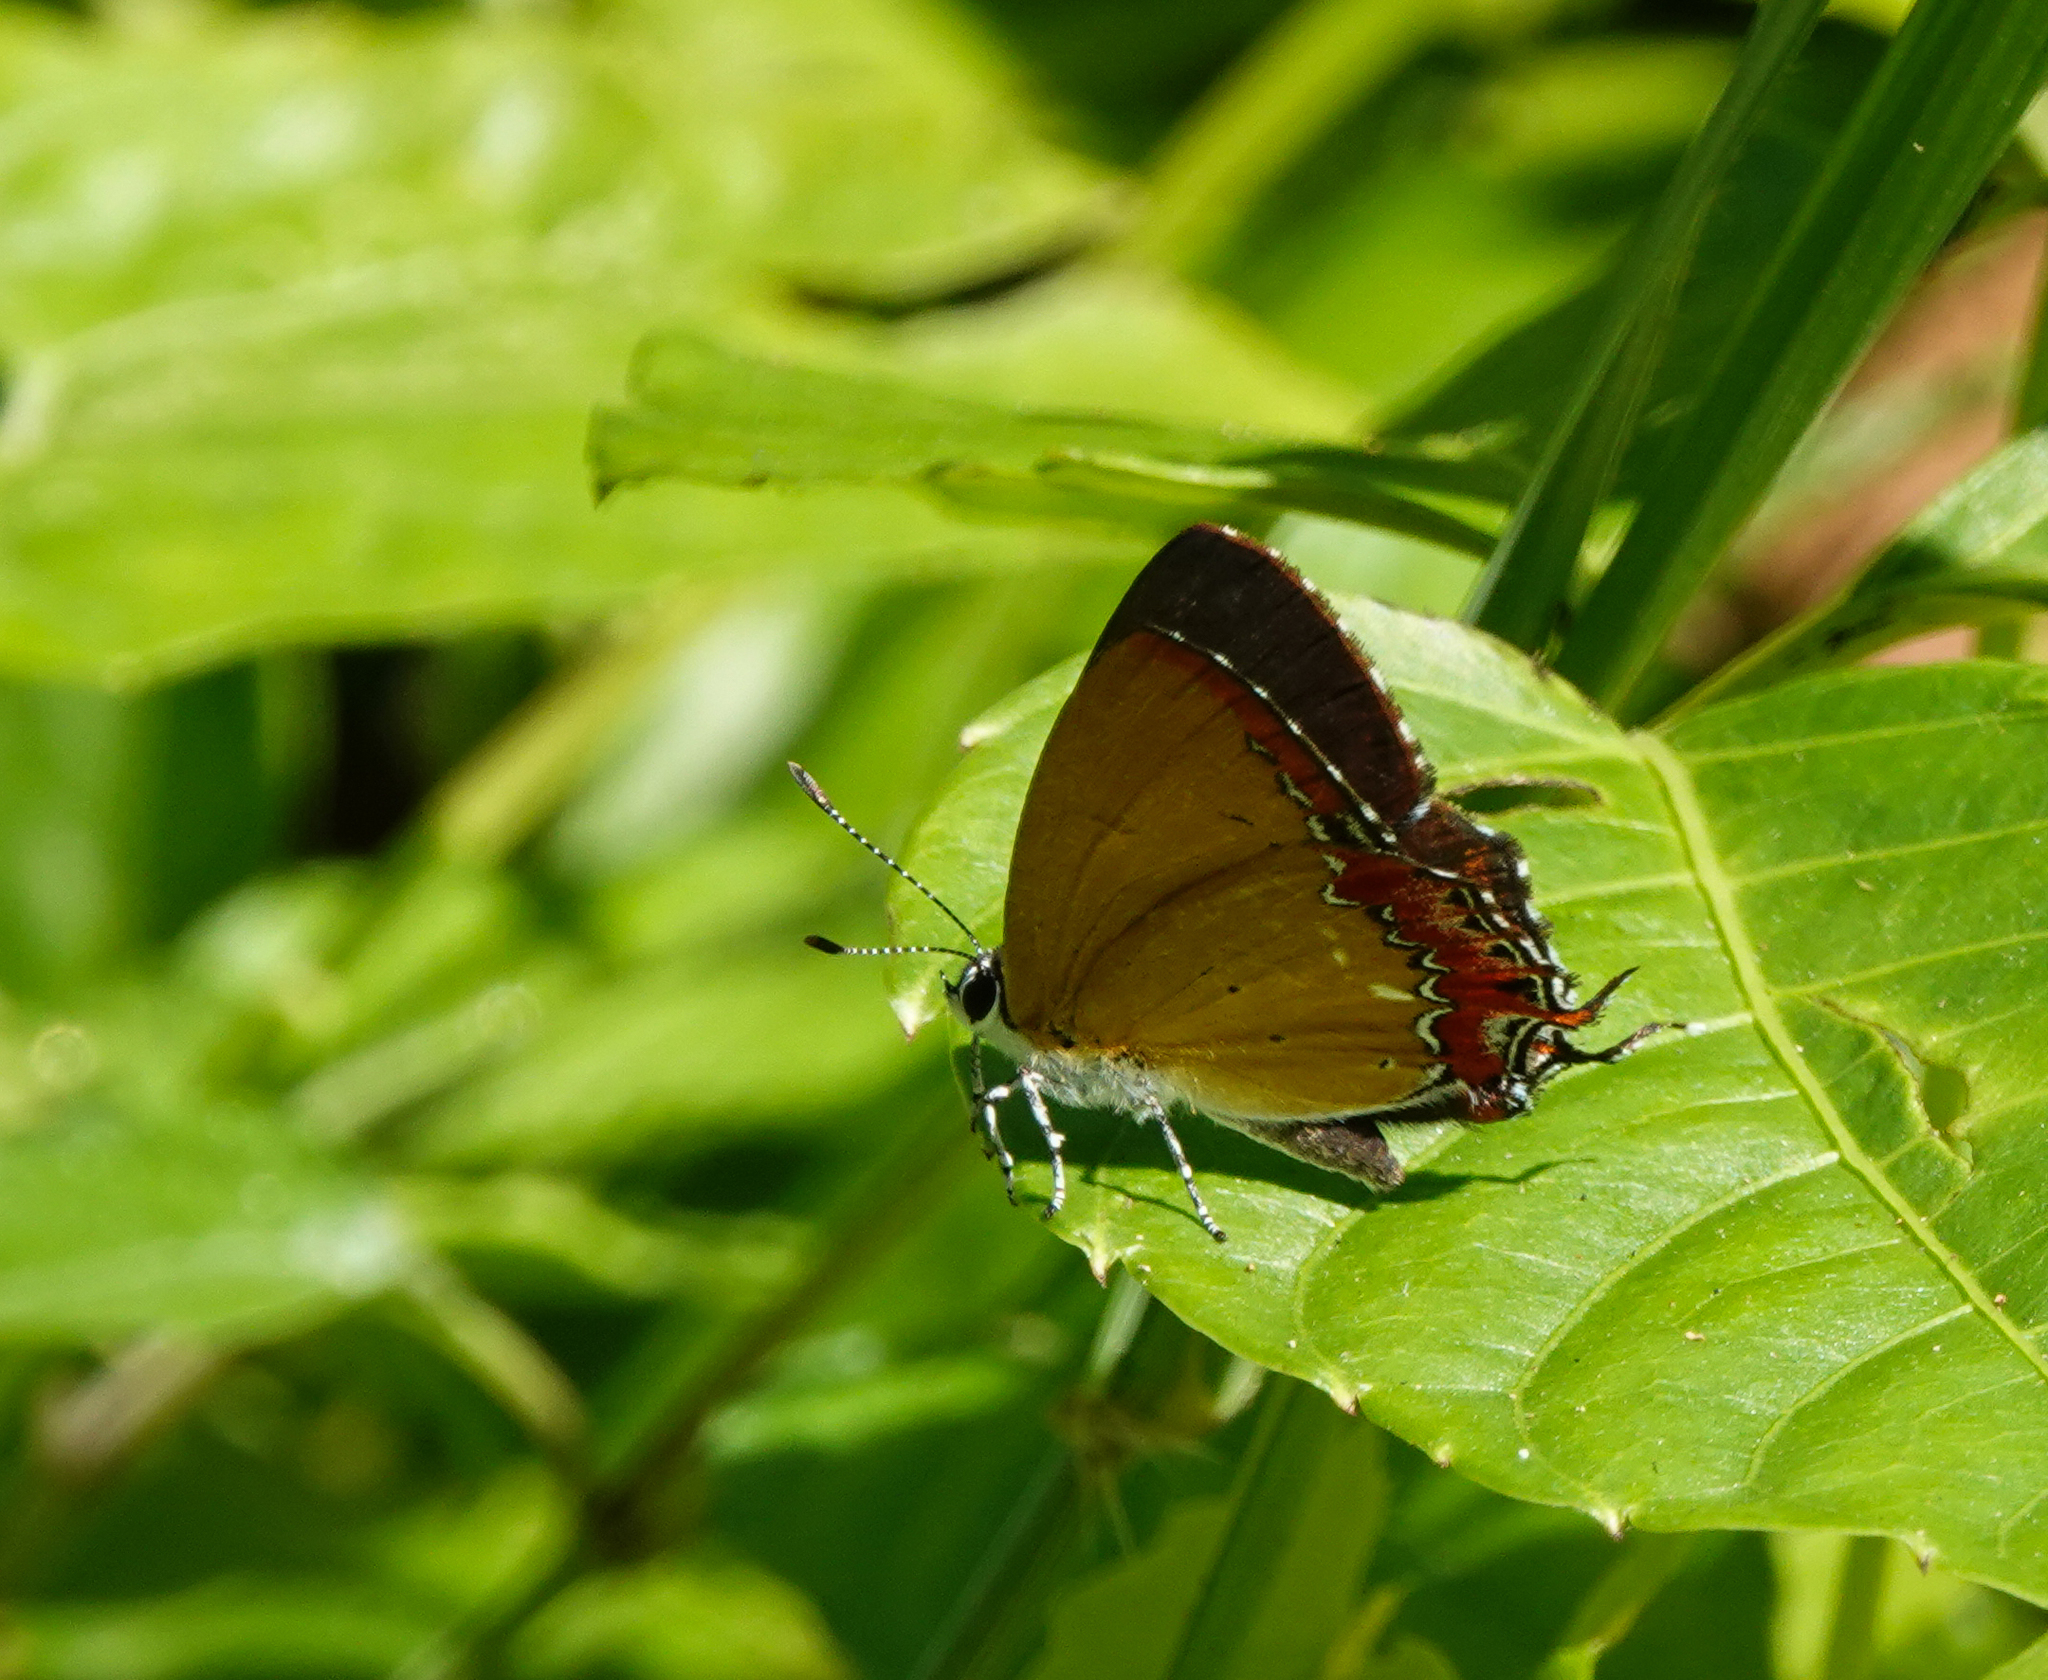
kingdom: Animalia
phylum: Arthropoda
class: Insecta
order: Lepidoptera
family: Lycaenidae
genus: Heliophorus
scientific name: Heliophorus epicles
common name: Purple sapphire
